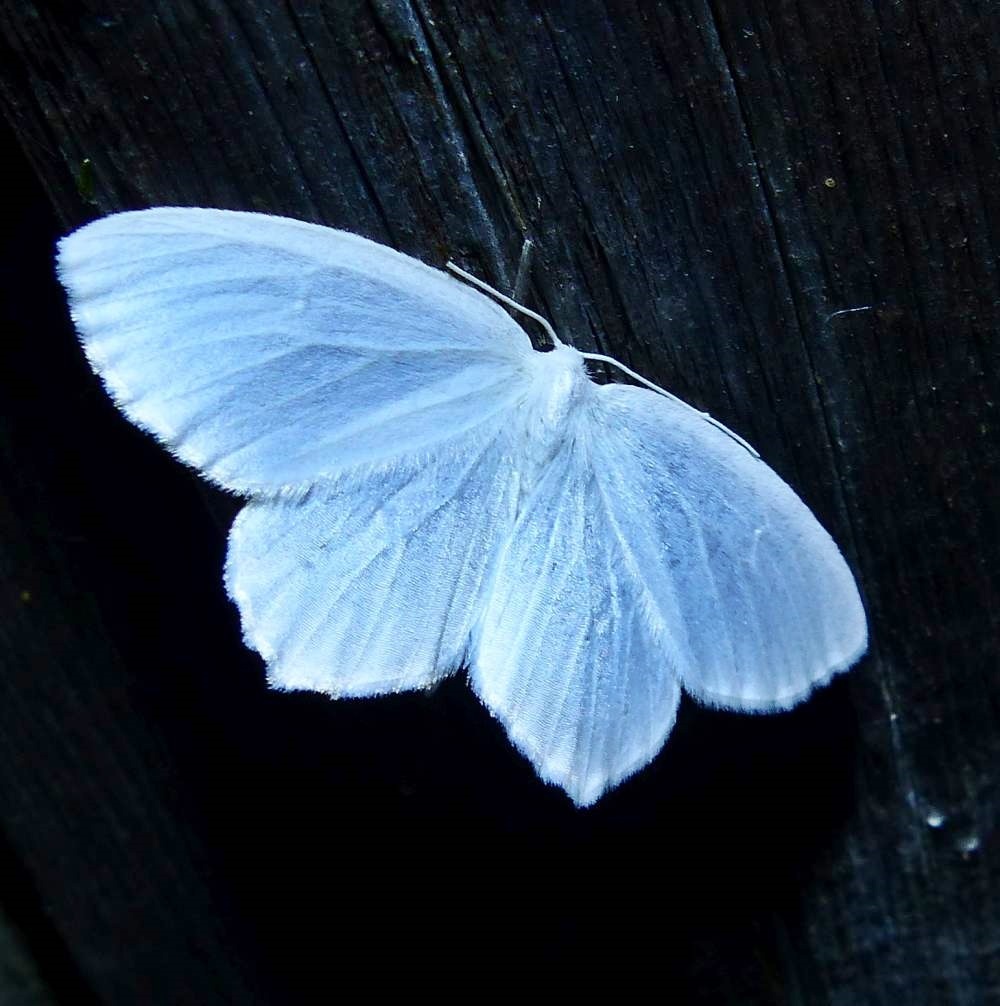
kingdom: Animalia
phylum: Arthropoda
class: Insecta
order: Lepidoptera
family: Geometridae
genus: Eugonobapta
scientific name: Eugonobapta nivosaria
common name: Snowy geometer
